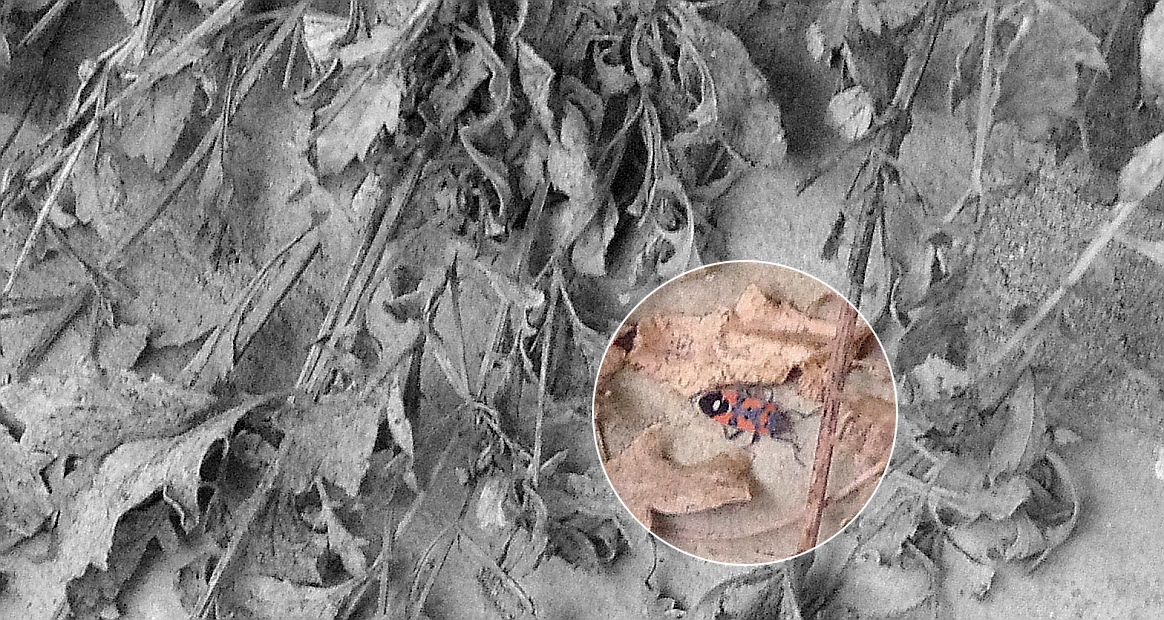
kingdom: Animalia
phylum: Arthropoda
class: Insecta
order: Hemiptera
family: Lygaeidae
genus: Lygaeus
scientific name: Lygaeus
